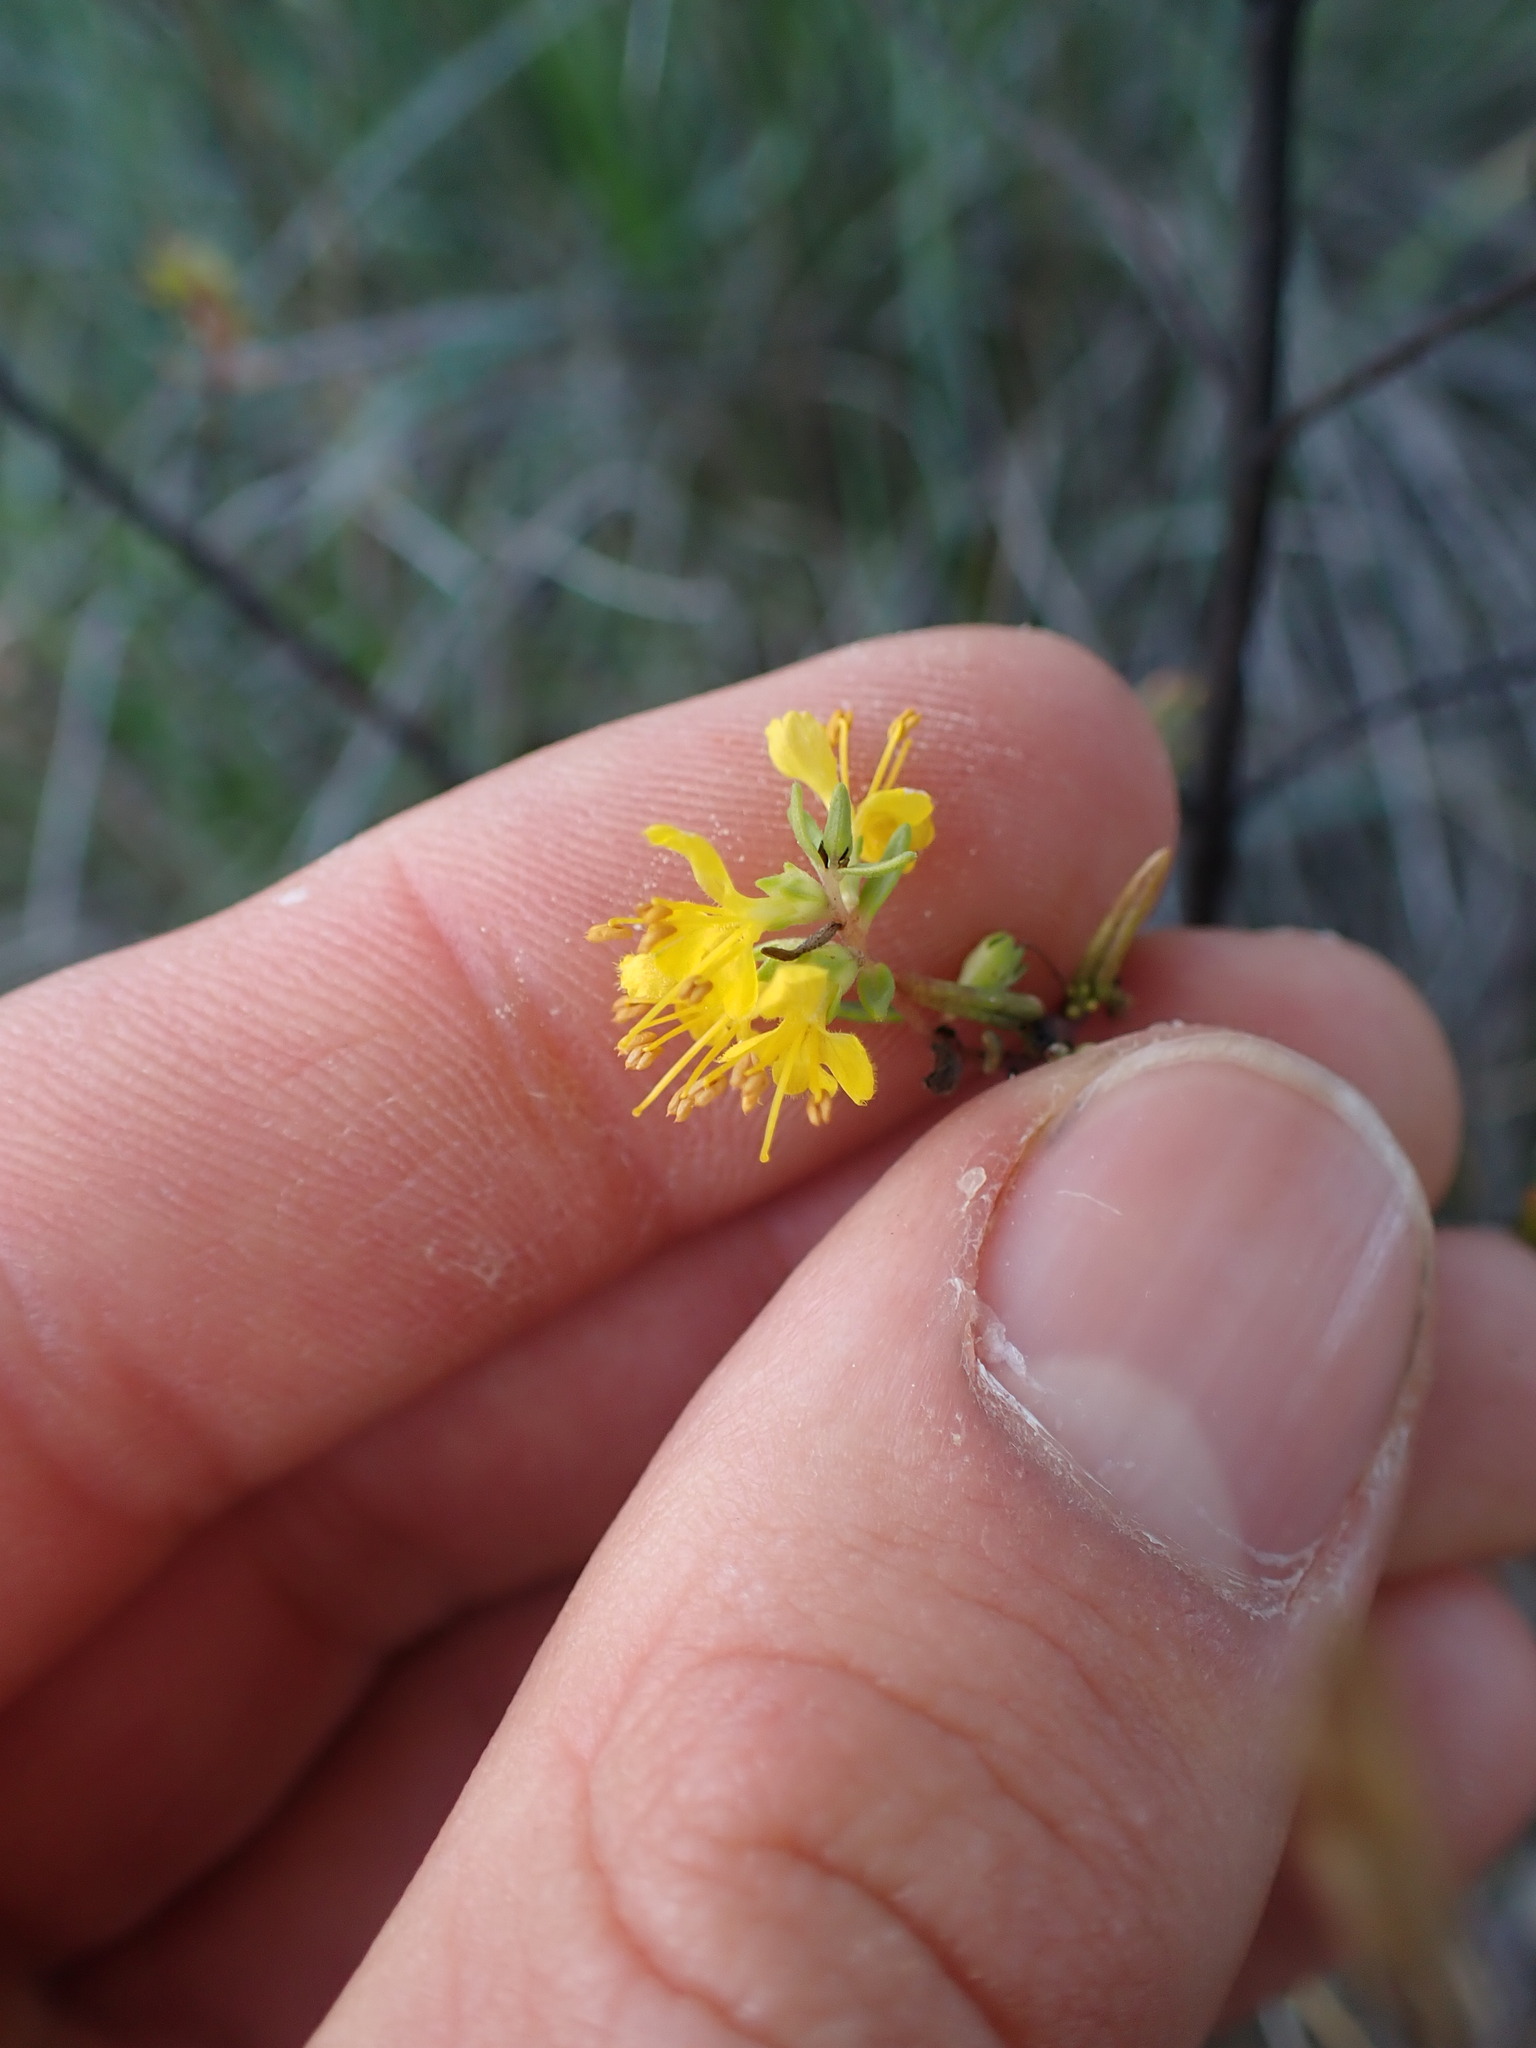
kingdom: Plantae
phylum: Tracheophyta
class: Magnoliopsida
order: Lamiales
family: Orobanchaceae
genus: Odontites
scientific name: Odontites luteus
